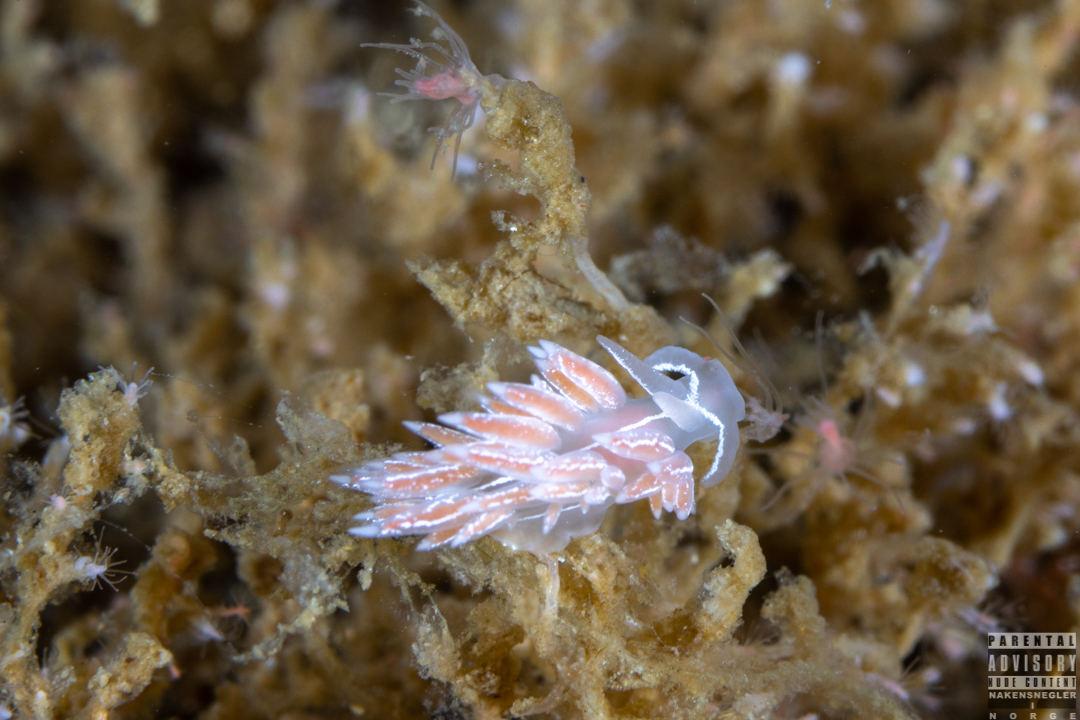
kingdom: Animalia
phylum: Mollusca
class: Gastropoda
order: Nudibranchia
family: Coryphellidae
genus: Coryphella
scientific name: Coryphella chriskaugei
